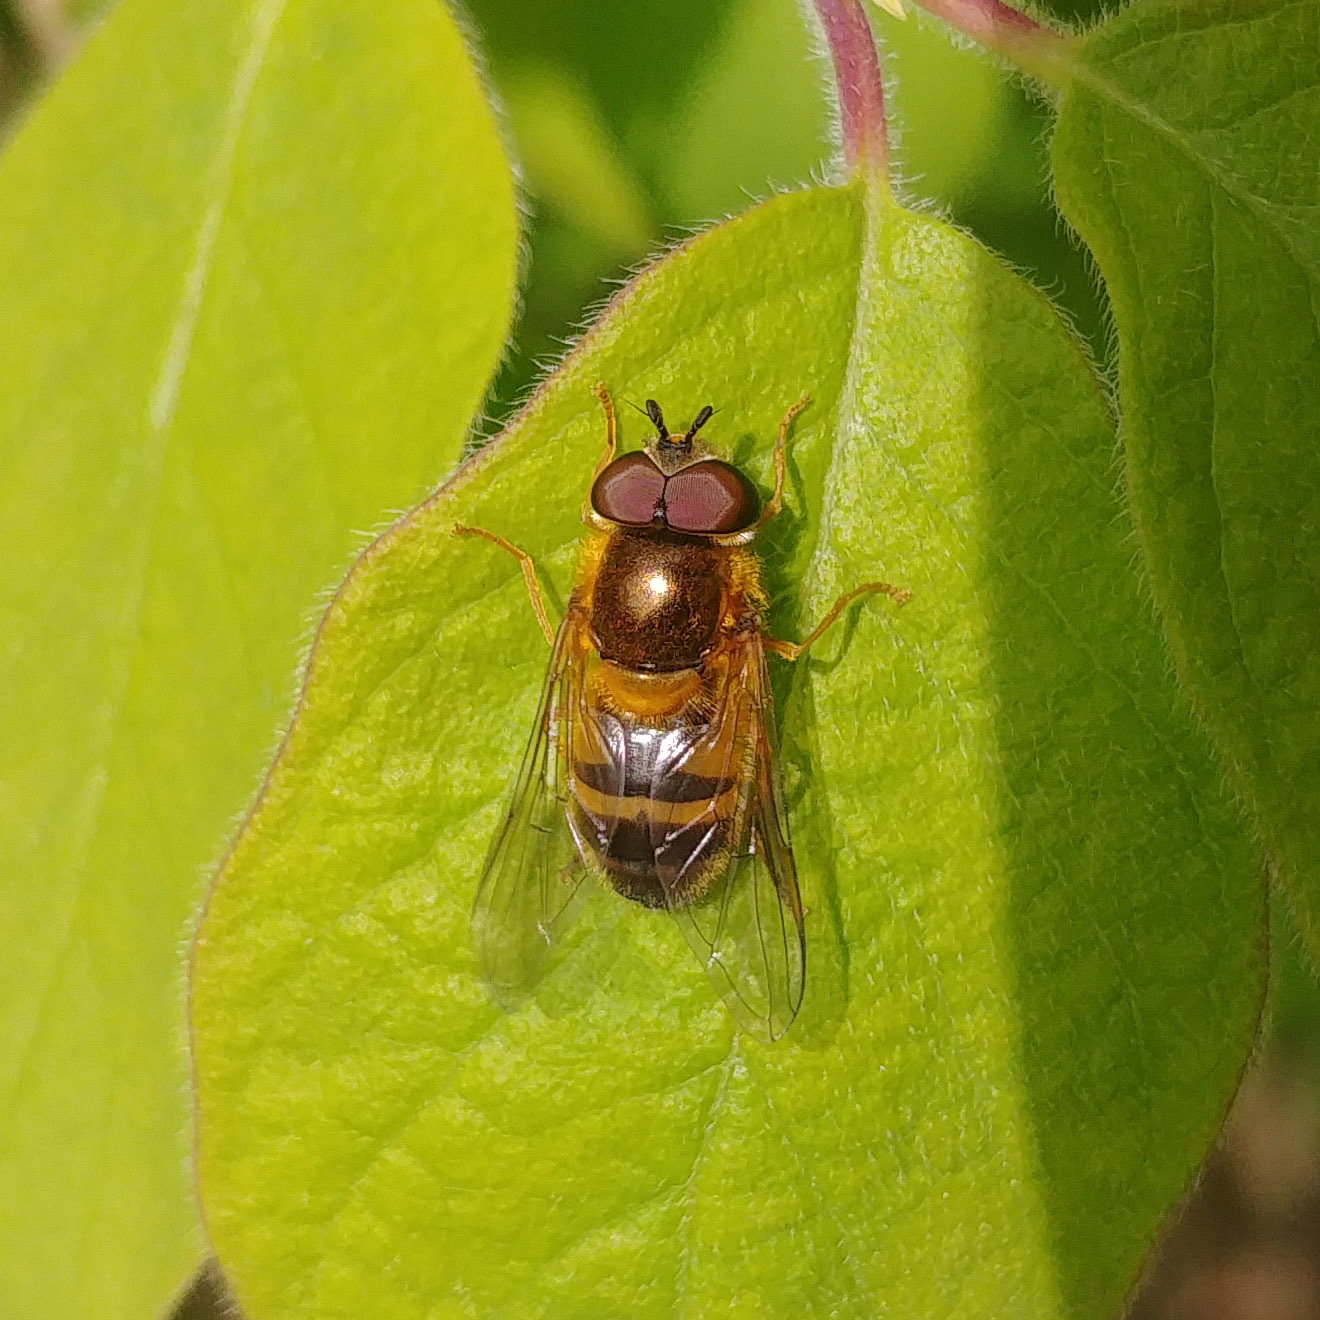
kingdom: Animalia
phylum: Arthropoda
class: Insecta
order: Diptera
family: Syrphidae
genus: Epistrophe
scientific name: Epistrophe eligans
